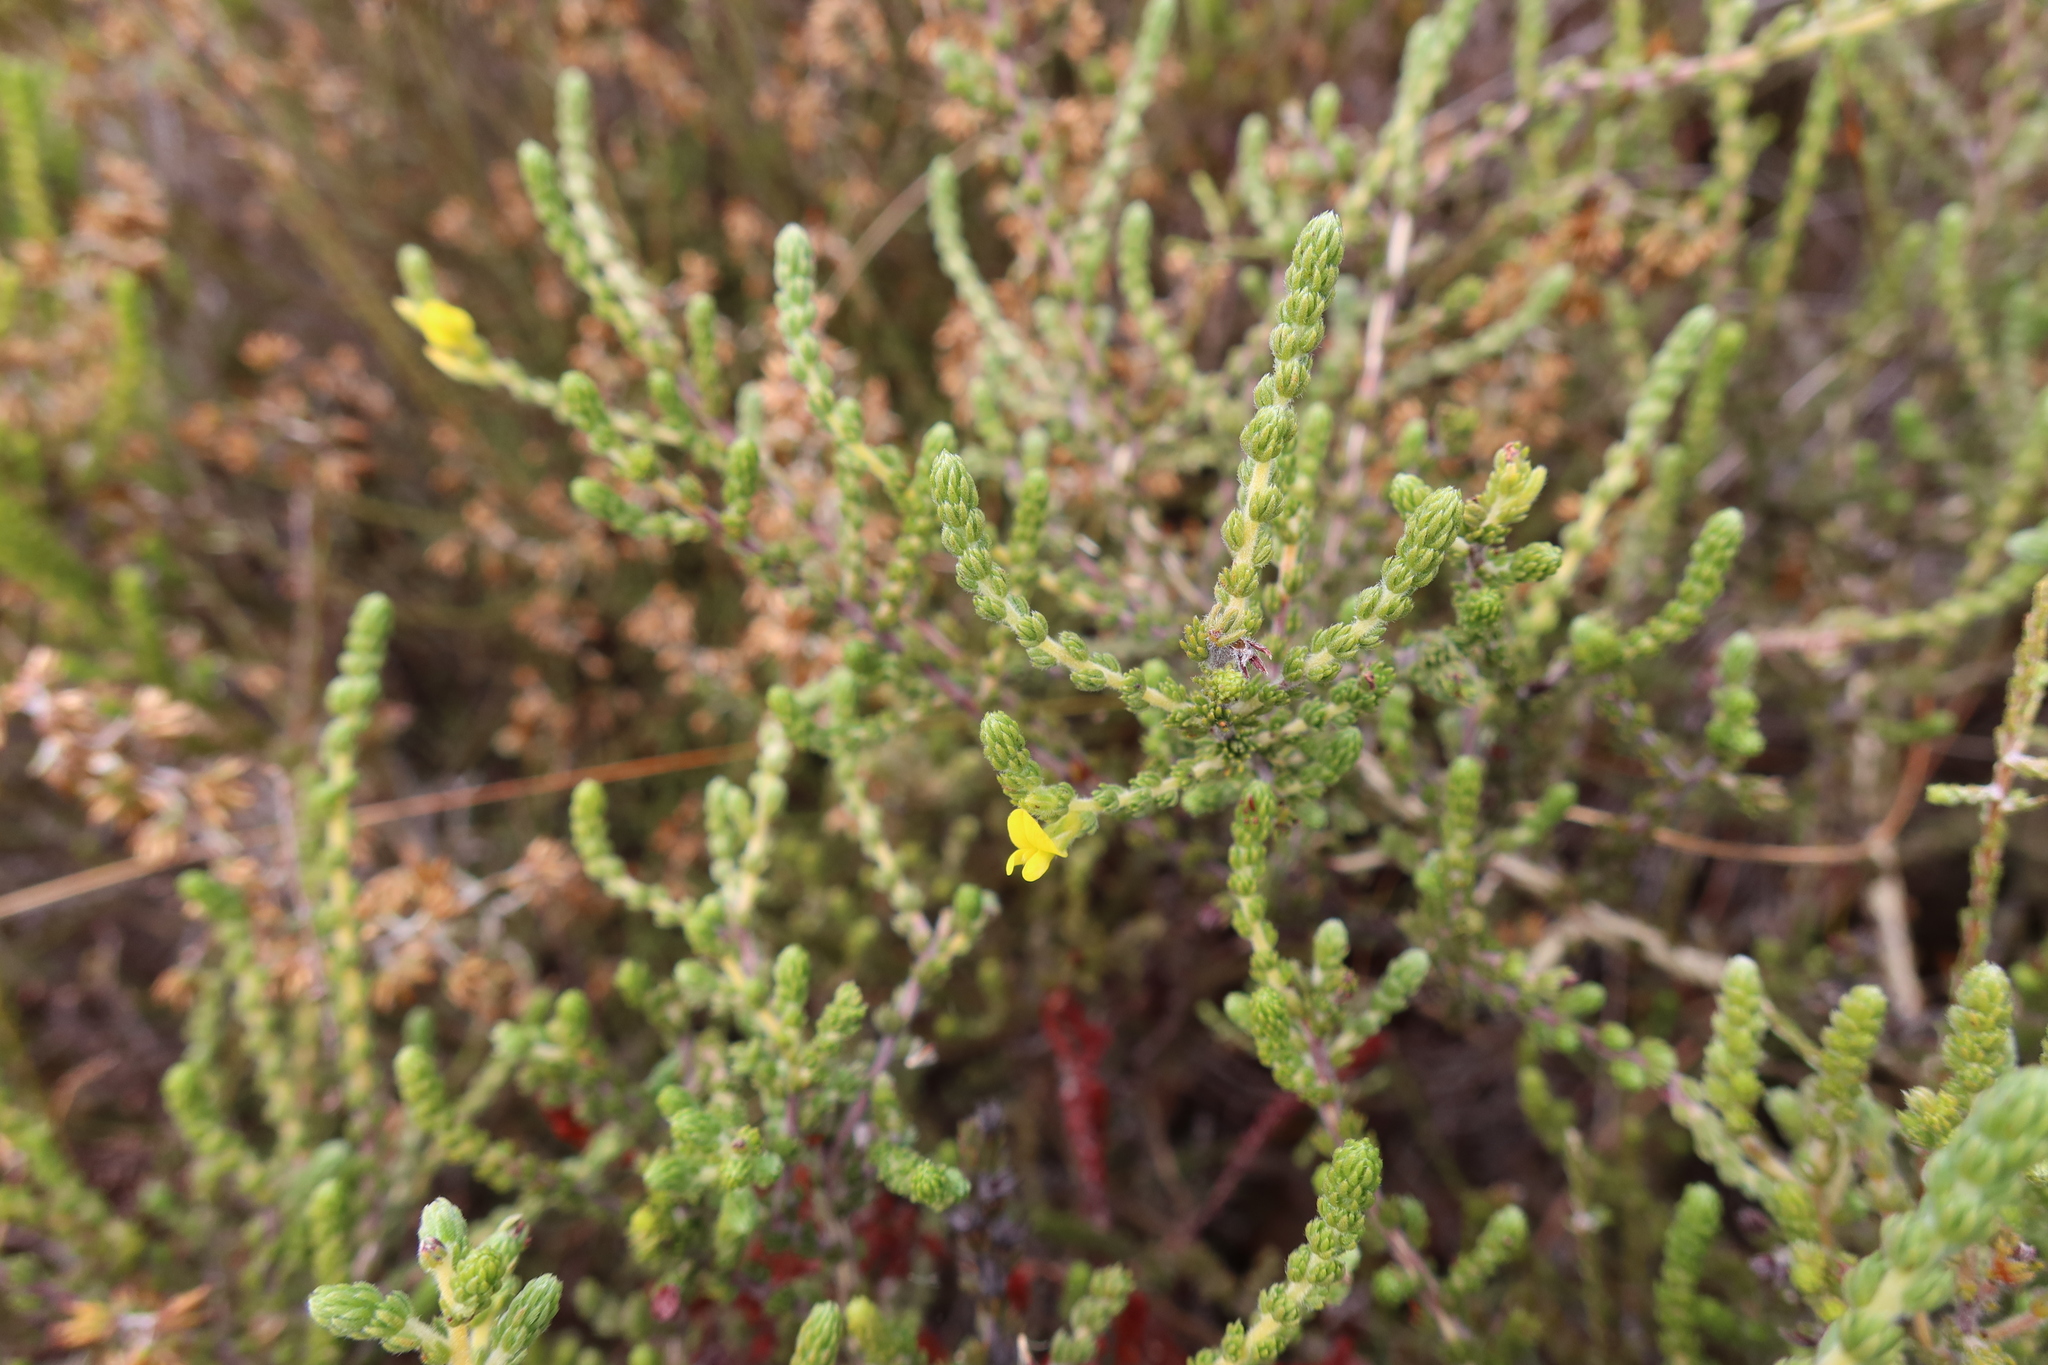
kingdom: Plantae
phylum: Tracheophyta
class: Magnoliopsida
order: Fabales
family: Fabaceae
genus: Aspalathus
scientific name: Aspalathus ericifolia
